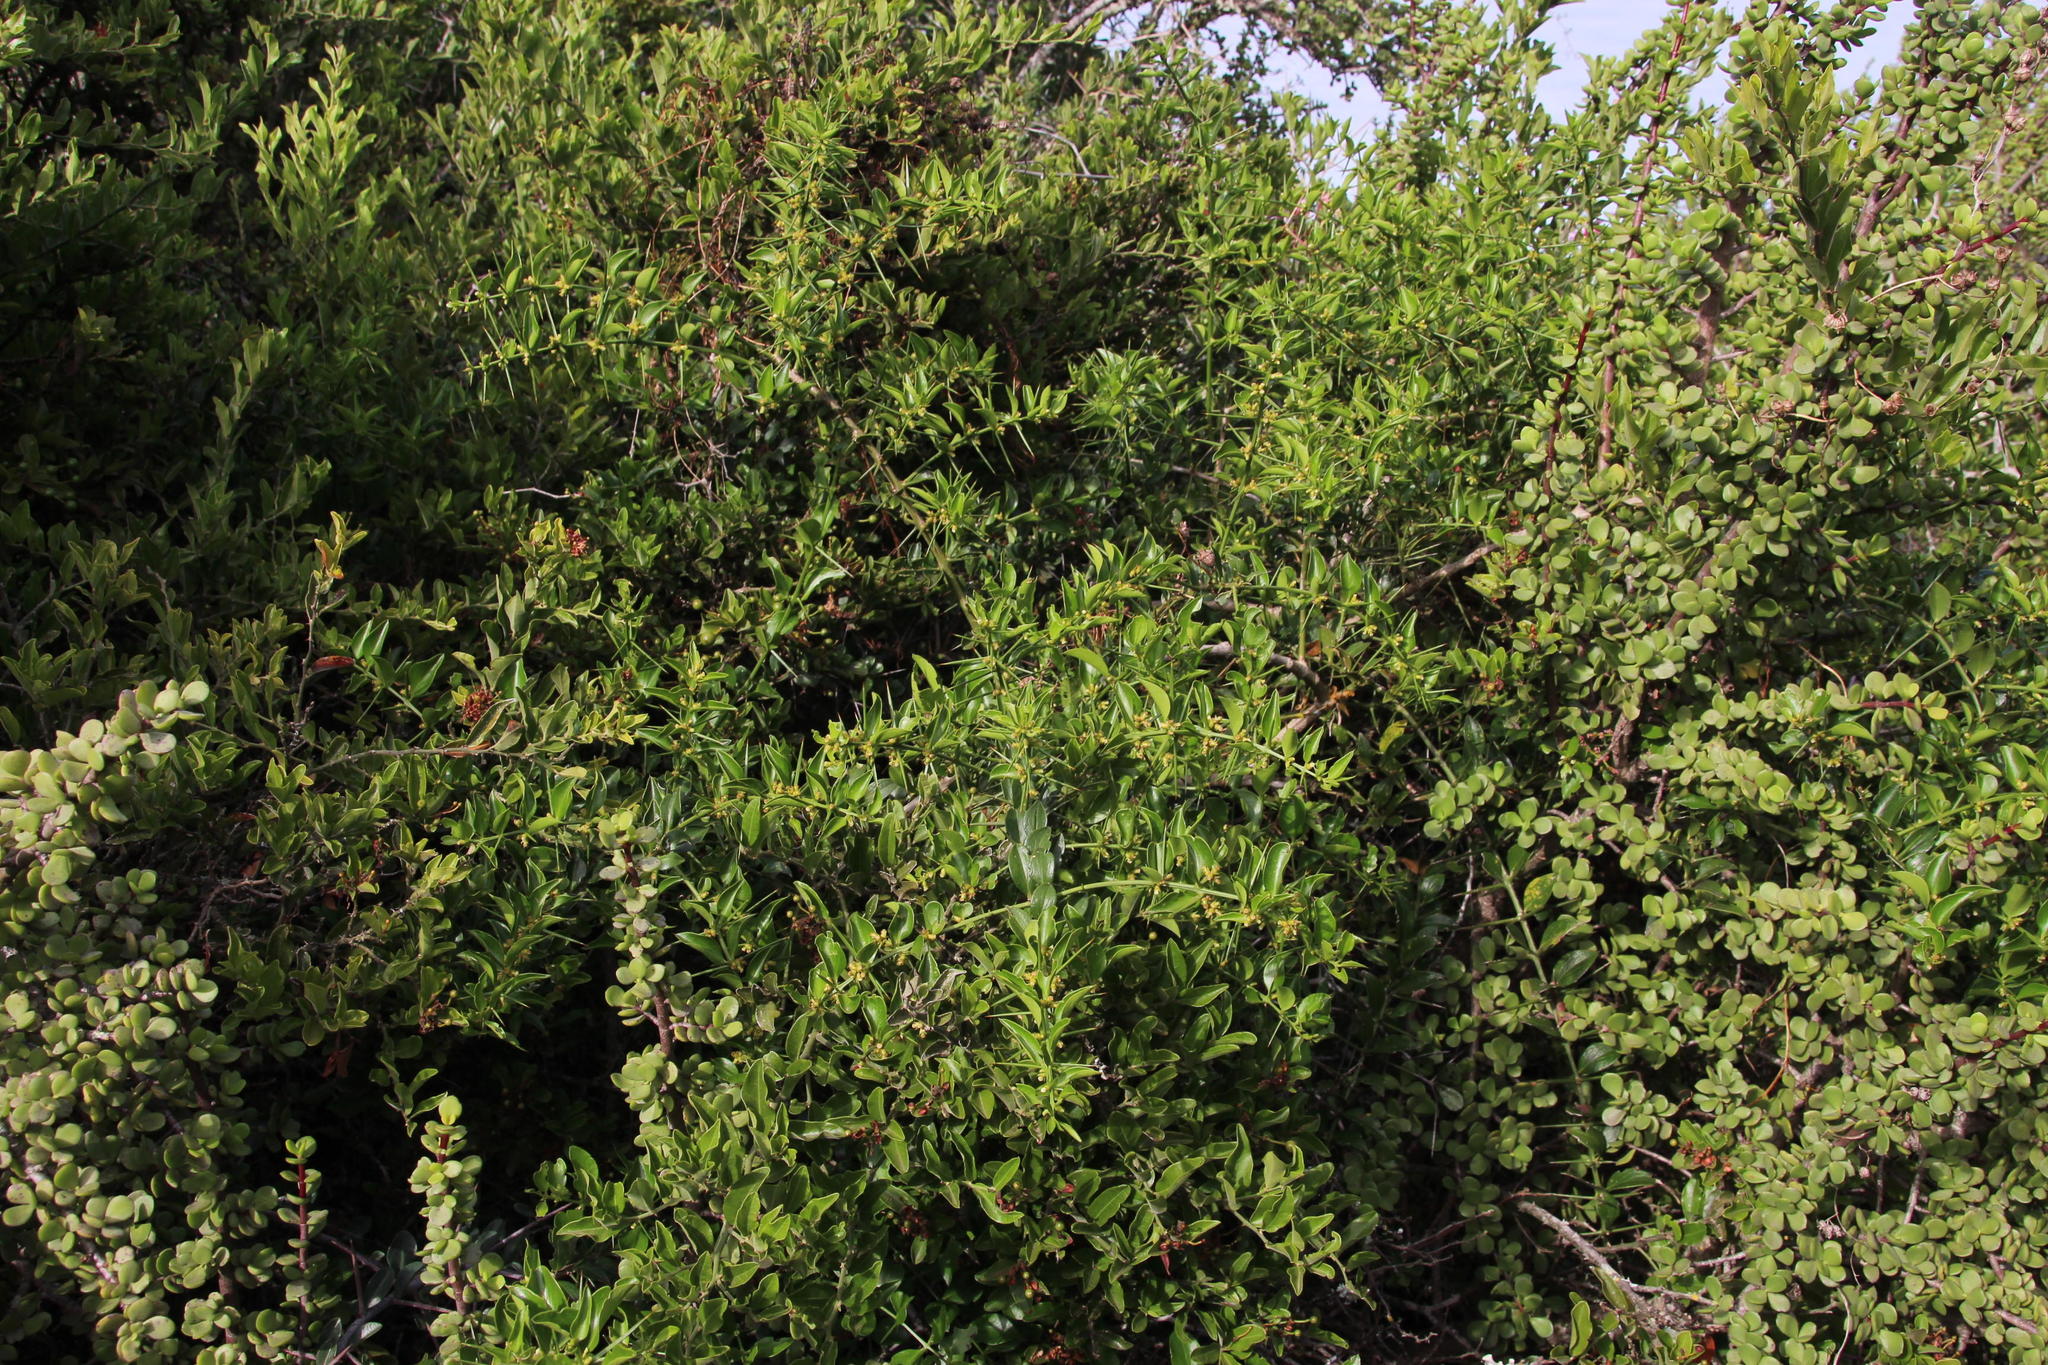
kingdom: Plantae
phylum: Tracheophyta
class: Magnoliopsida
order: Brassicales
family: Salvadoraceae
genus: Azima
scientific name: Azima tetracantha
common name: Needle bush
